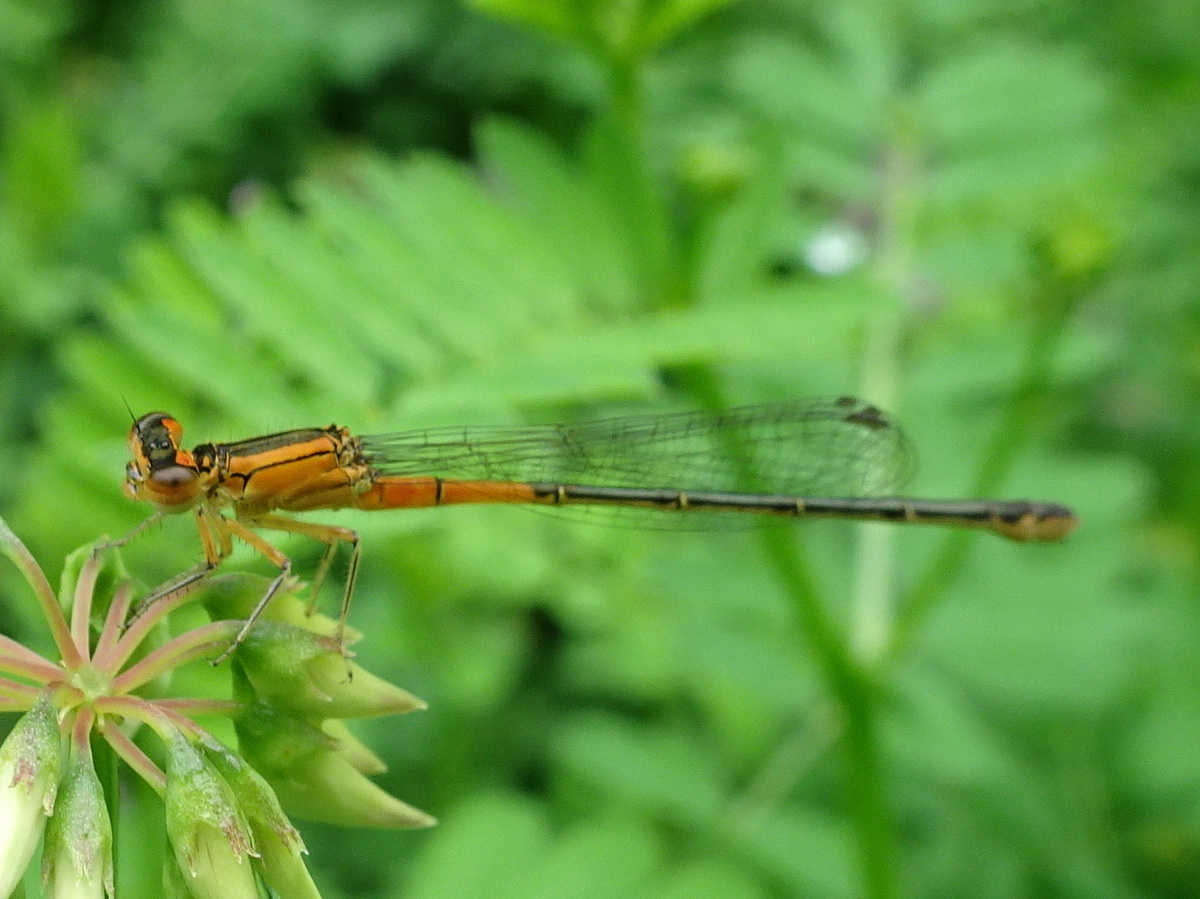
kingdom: Animalia
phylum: Arthropoda
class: Insecta
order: Odonata
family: Coenagrionidae
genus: Ischnura
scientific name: Ischnura verticalis
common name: Eastern forktail
